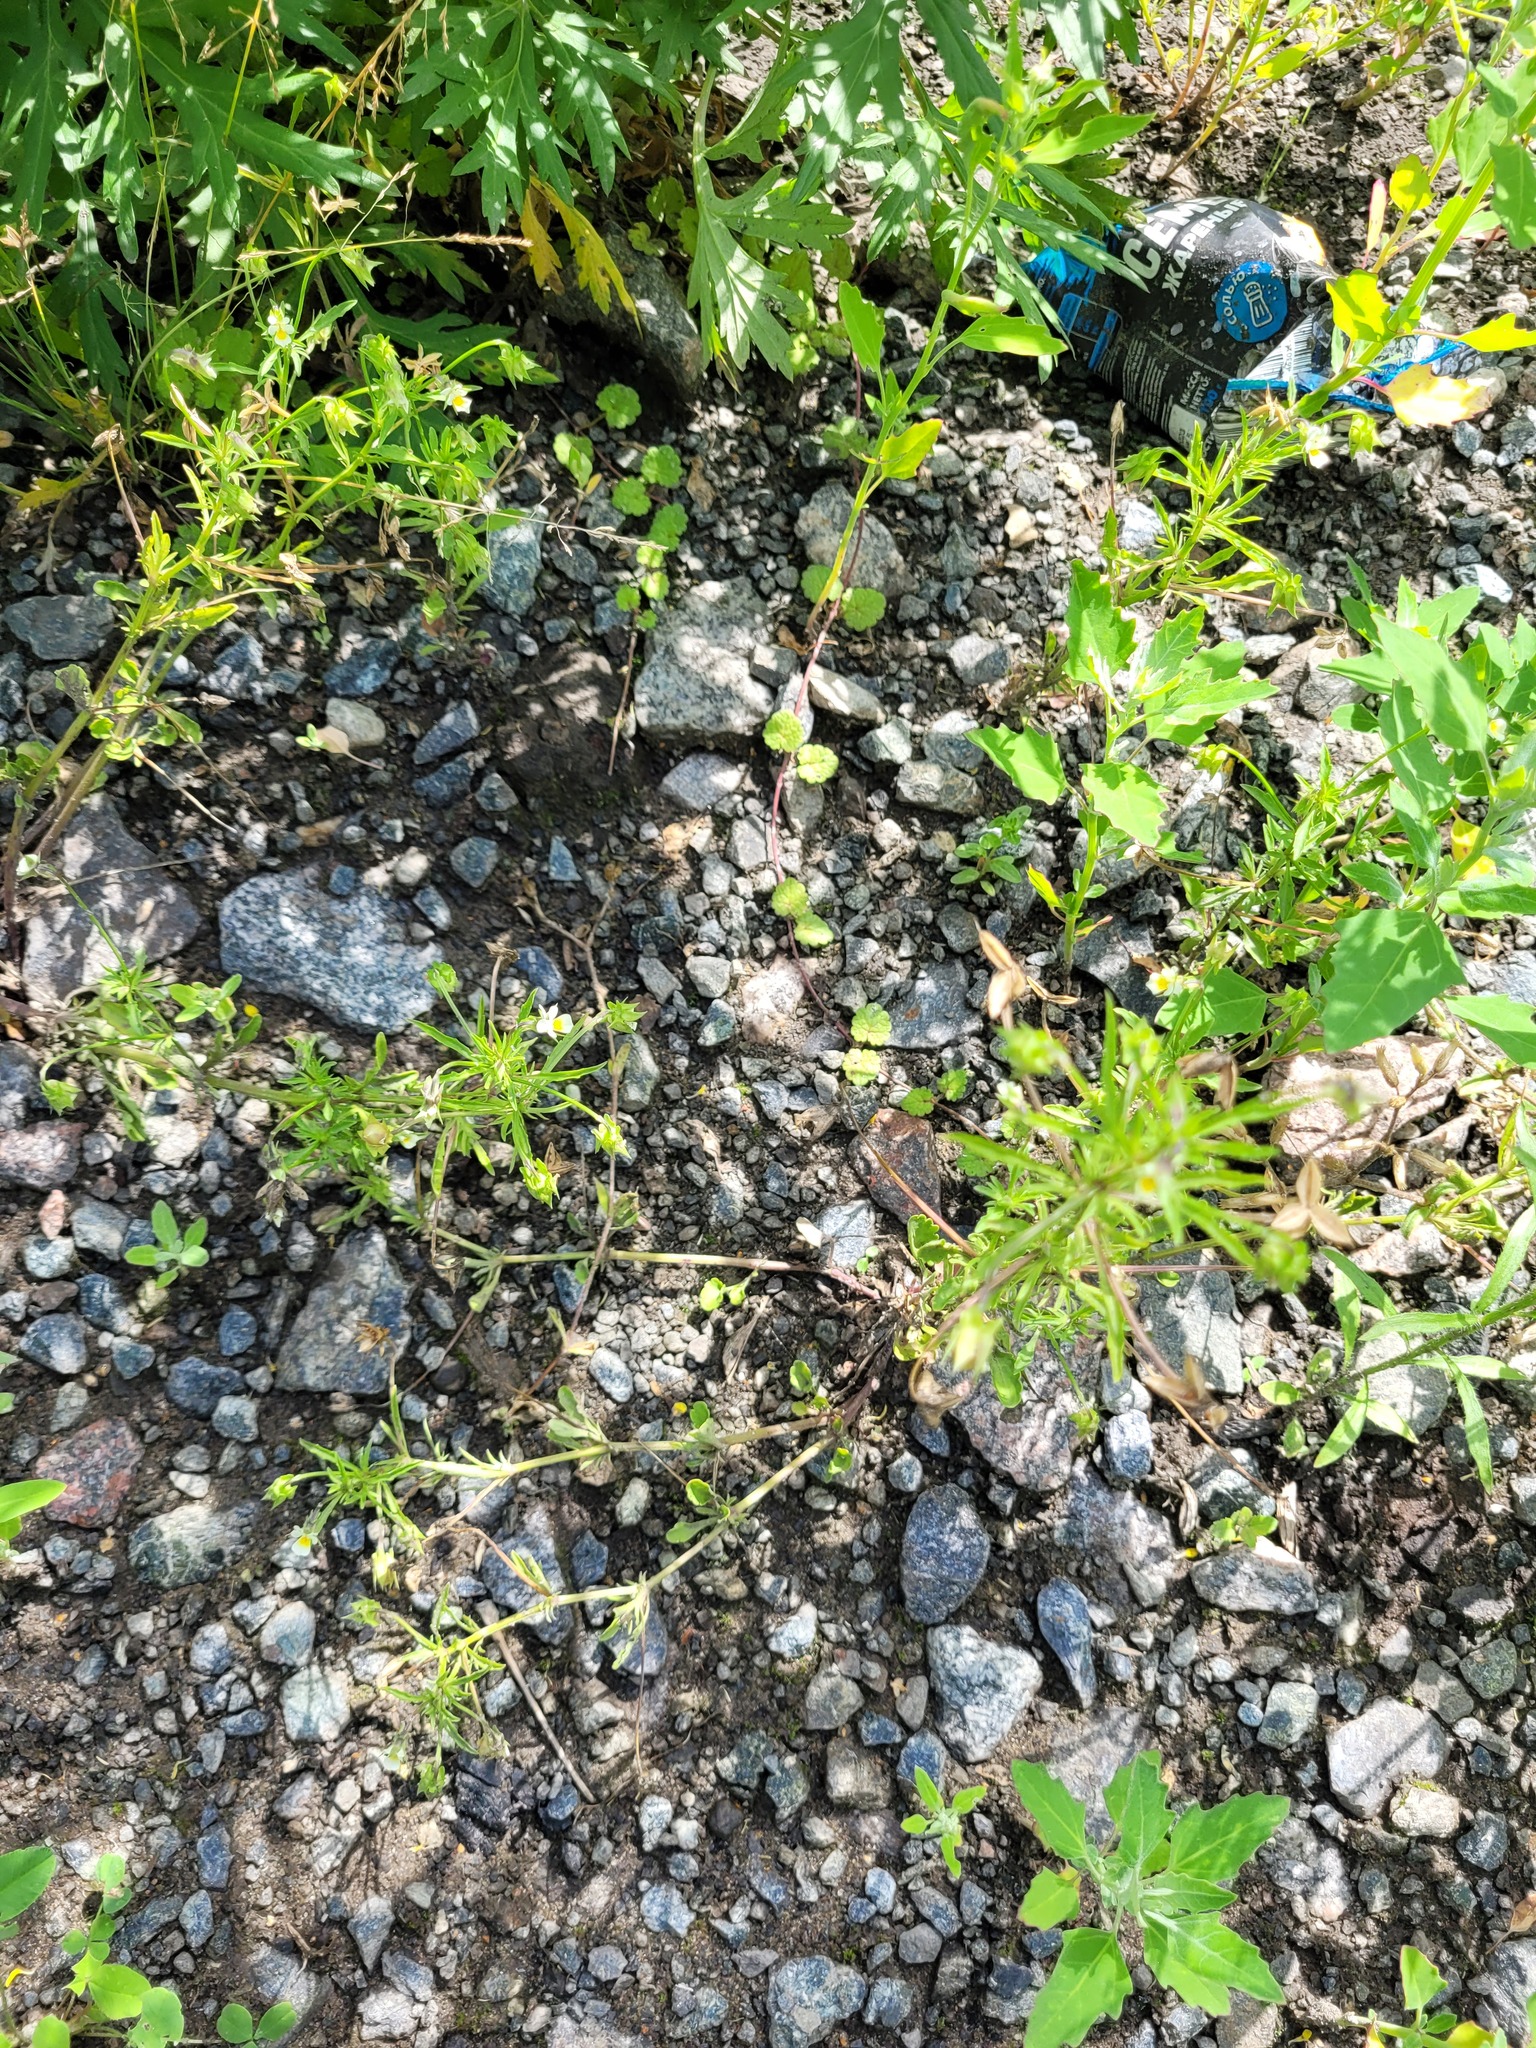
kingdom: Plantae
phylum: Tracheophyta
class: Magnoliopsida
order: Malpighiales
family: Violaceae
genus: Viola
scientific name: Viola arvensis
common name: Field pansy
